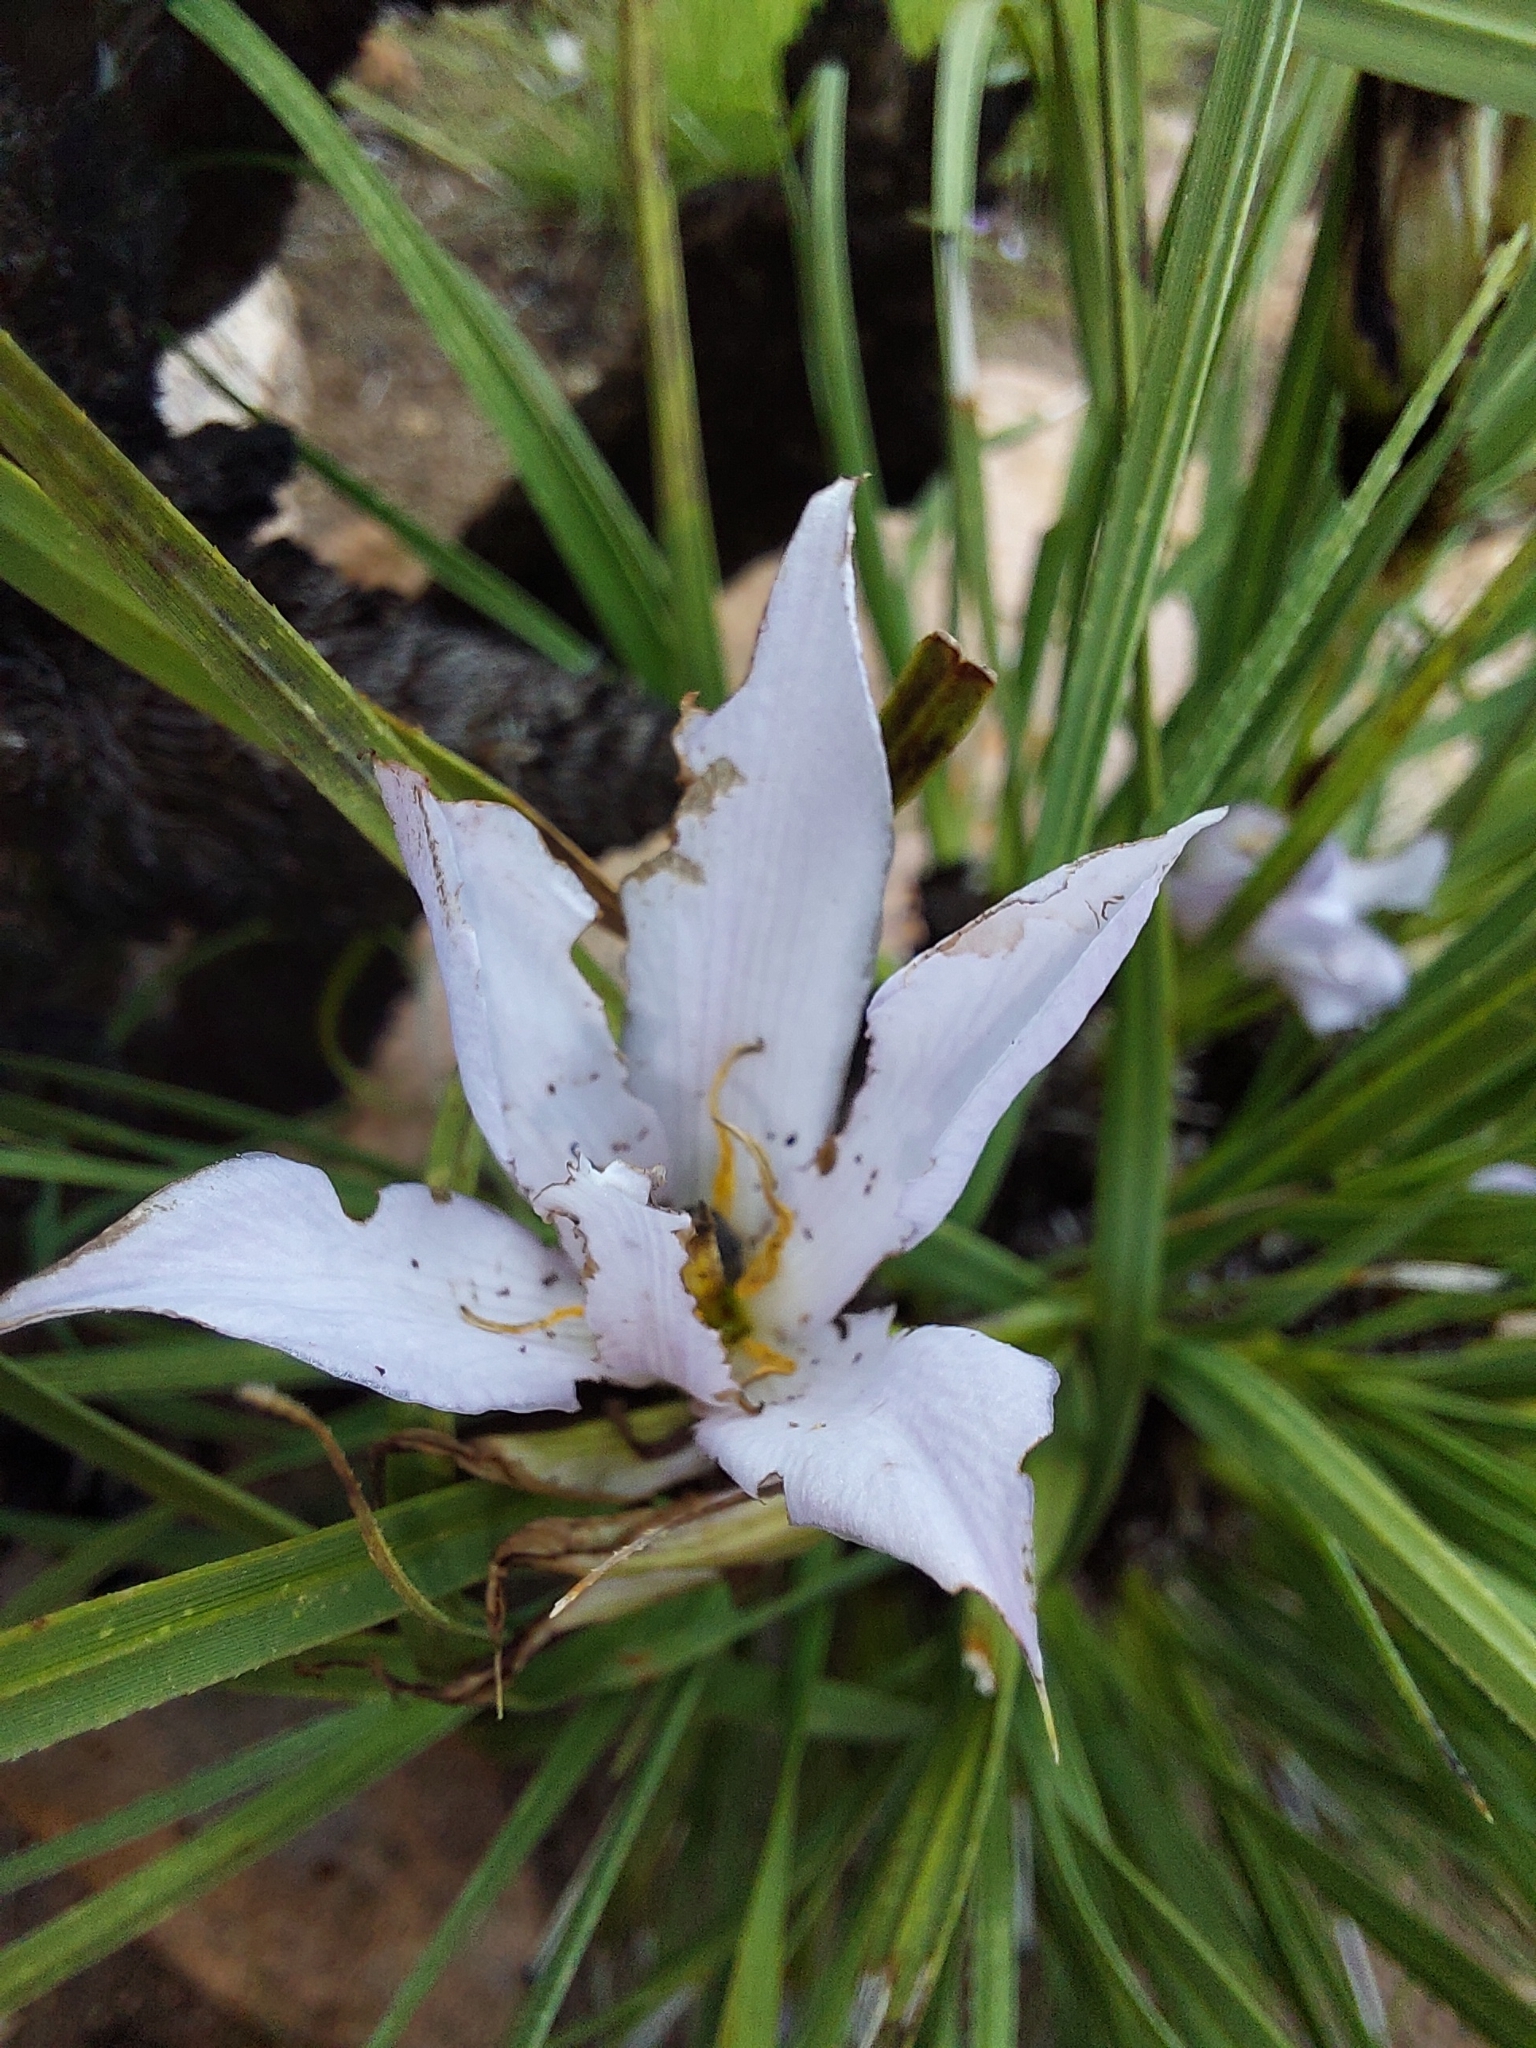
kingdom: Plantae
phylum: Tracheophyta
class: Liliopsida
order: Pandanales
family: Velloziaceae
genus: Xerophyta
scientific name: Xerophyta retinervis
